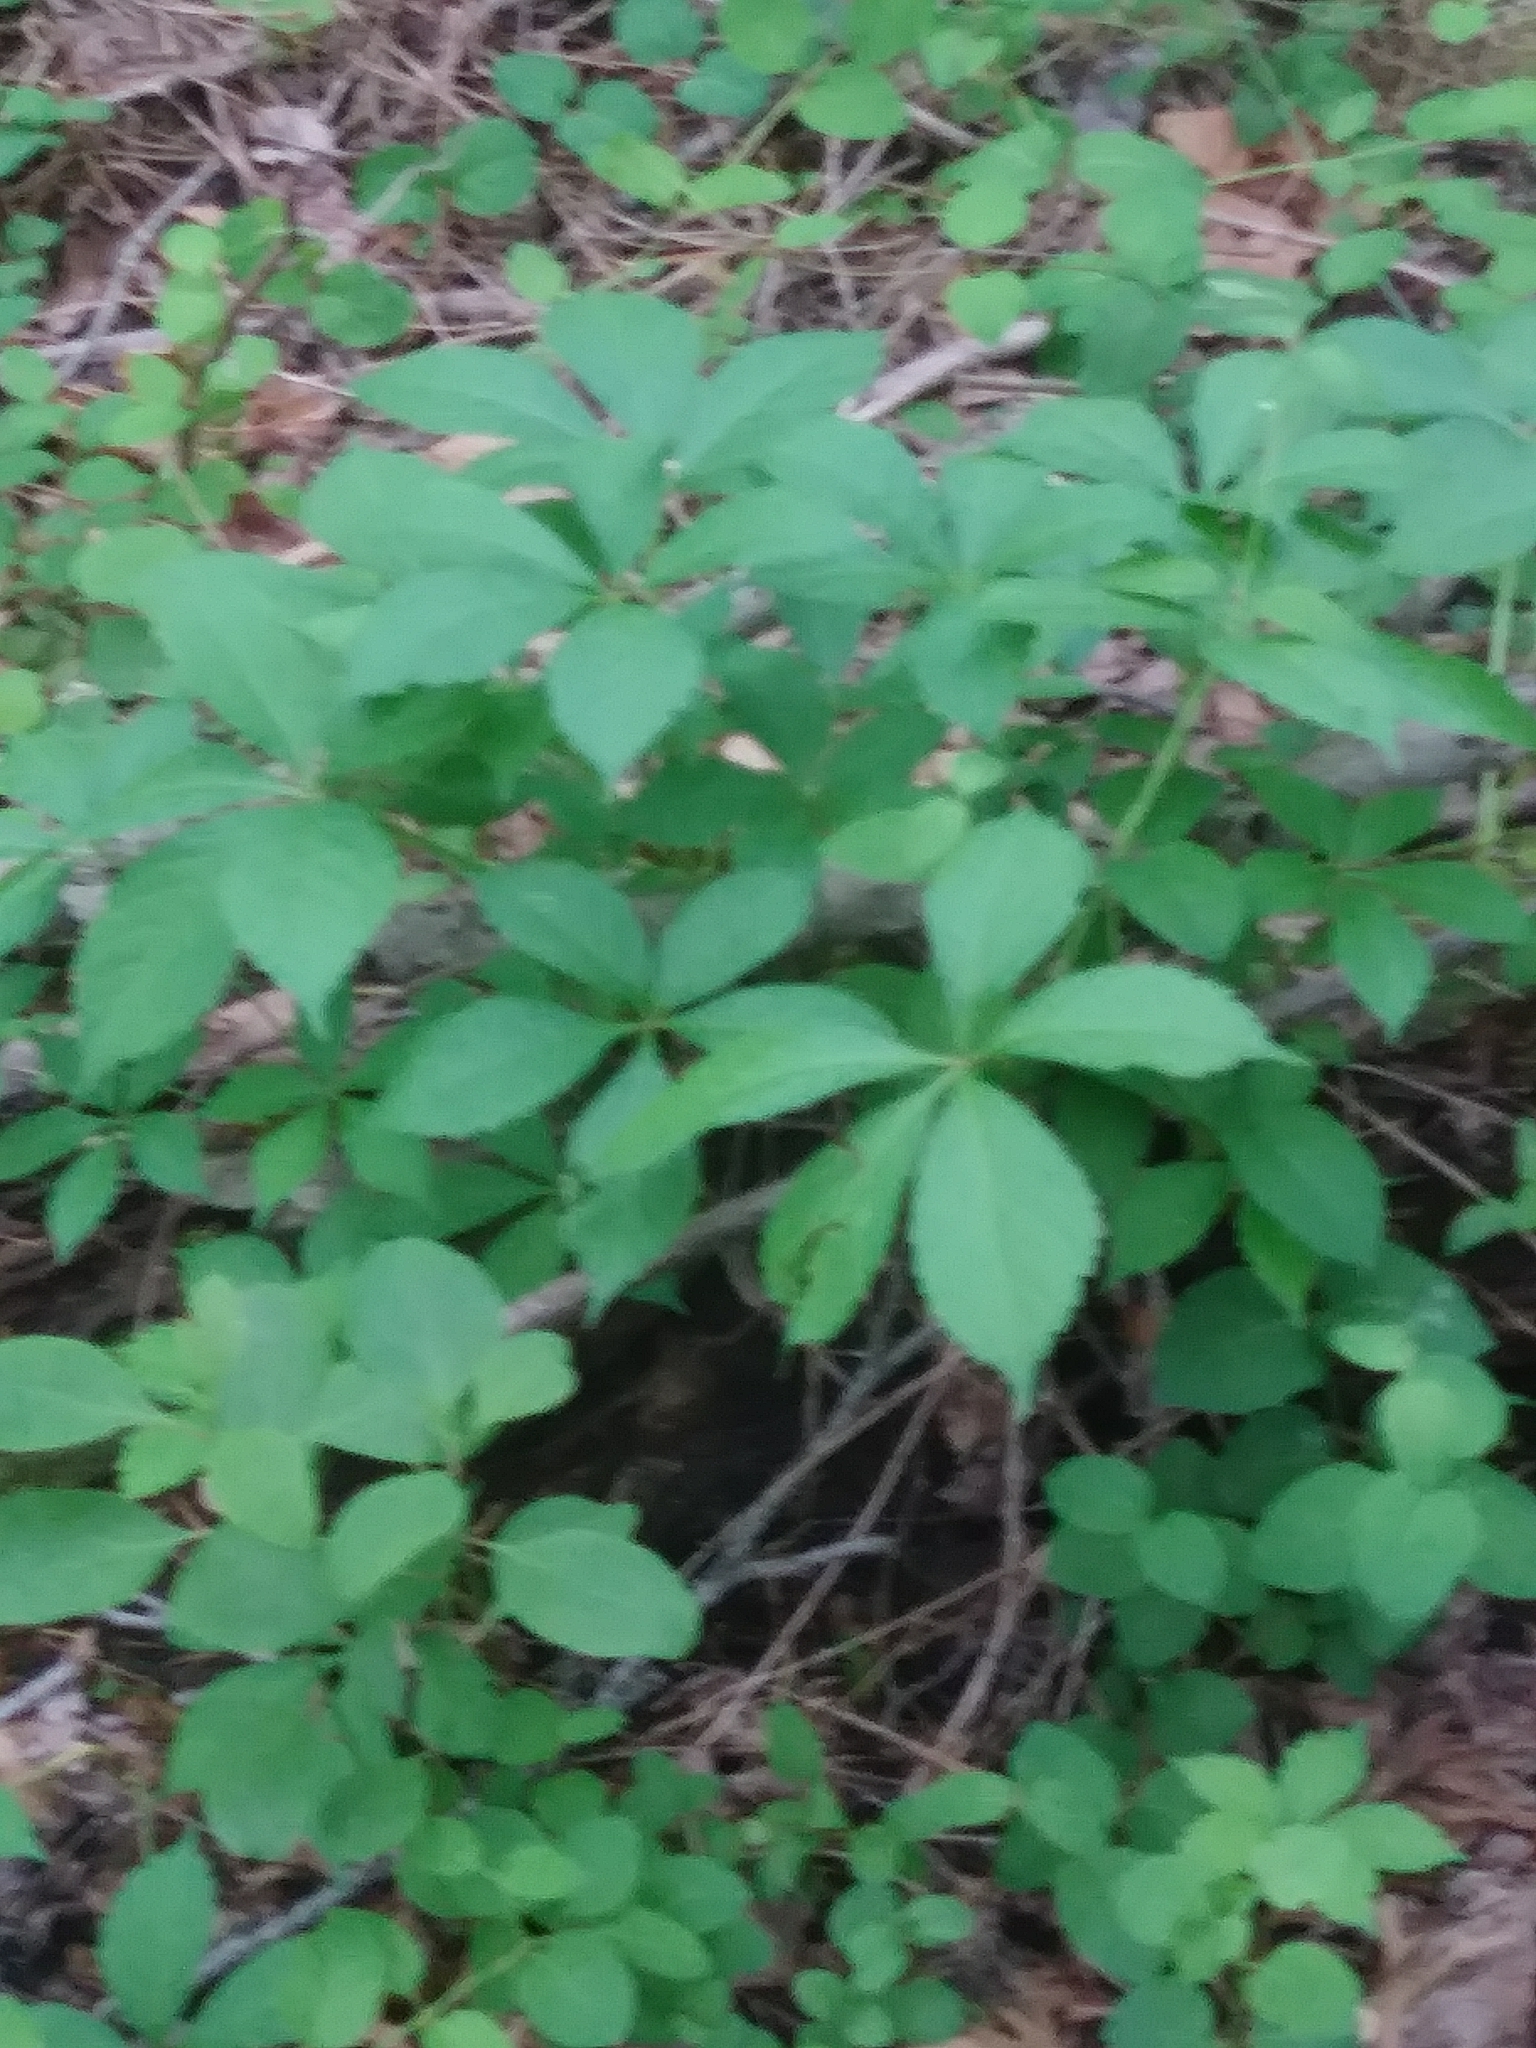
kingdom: Plantae
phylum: Tracheophyta
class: Magnoliopsida
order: Vitales
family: Vitaceae
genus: Parthenocissus
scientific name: Parthenocissus quinquefolia
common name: Virginia-creeper
